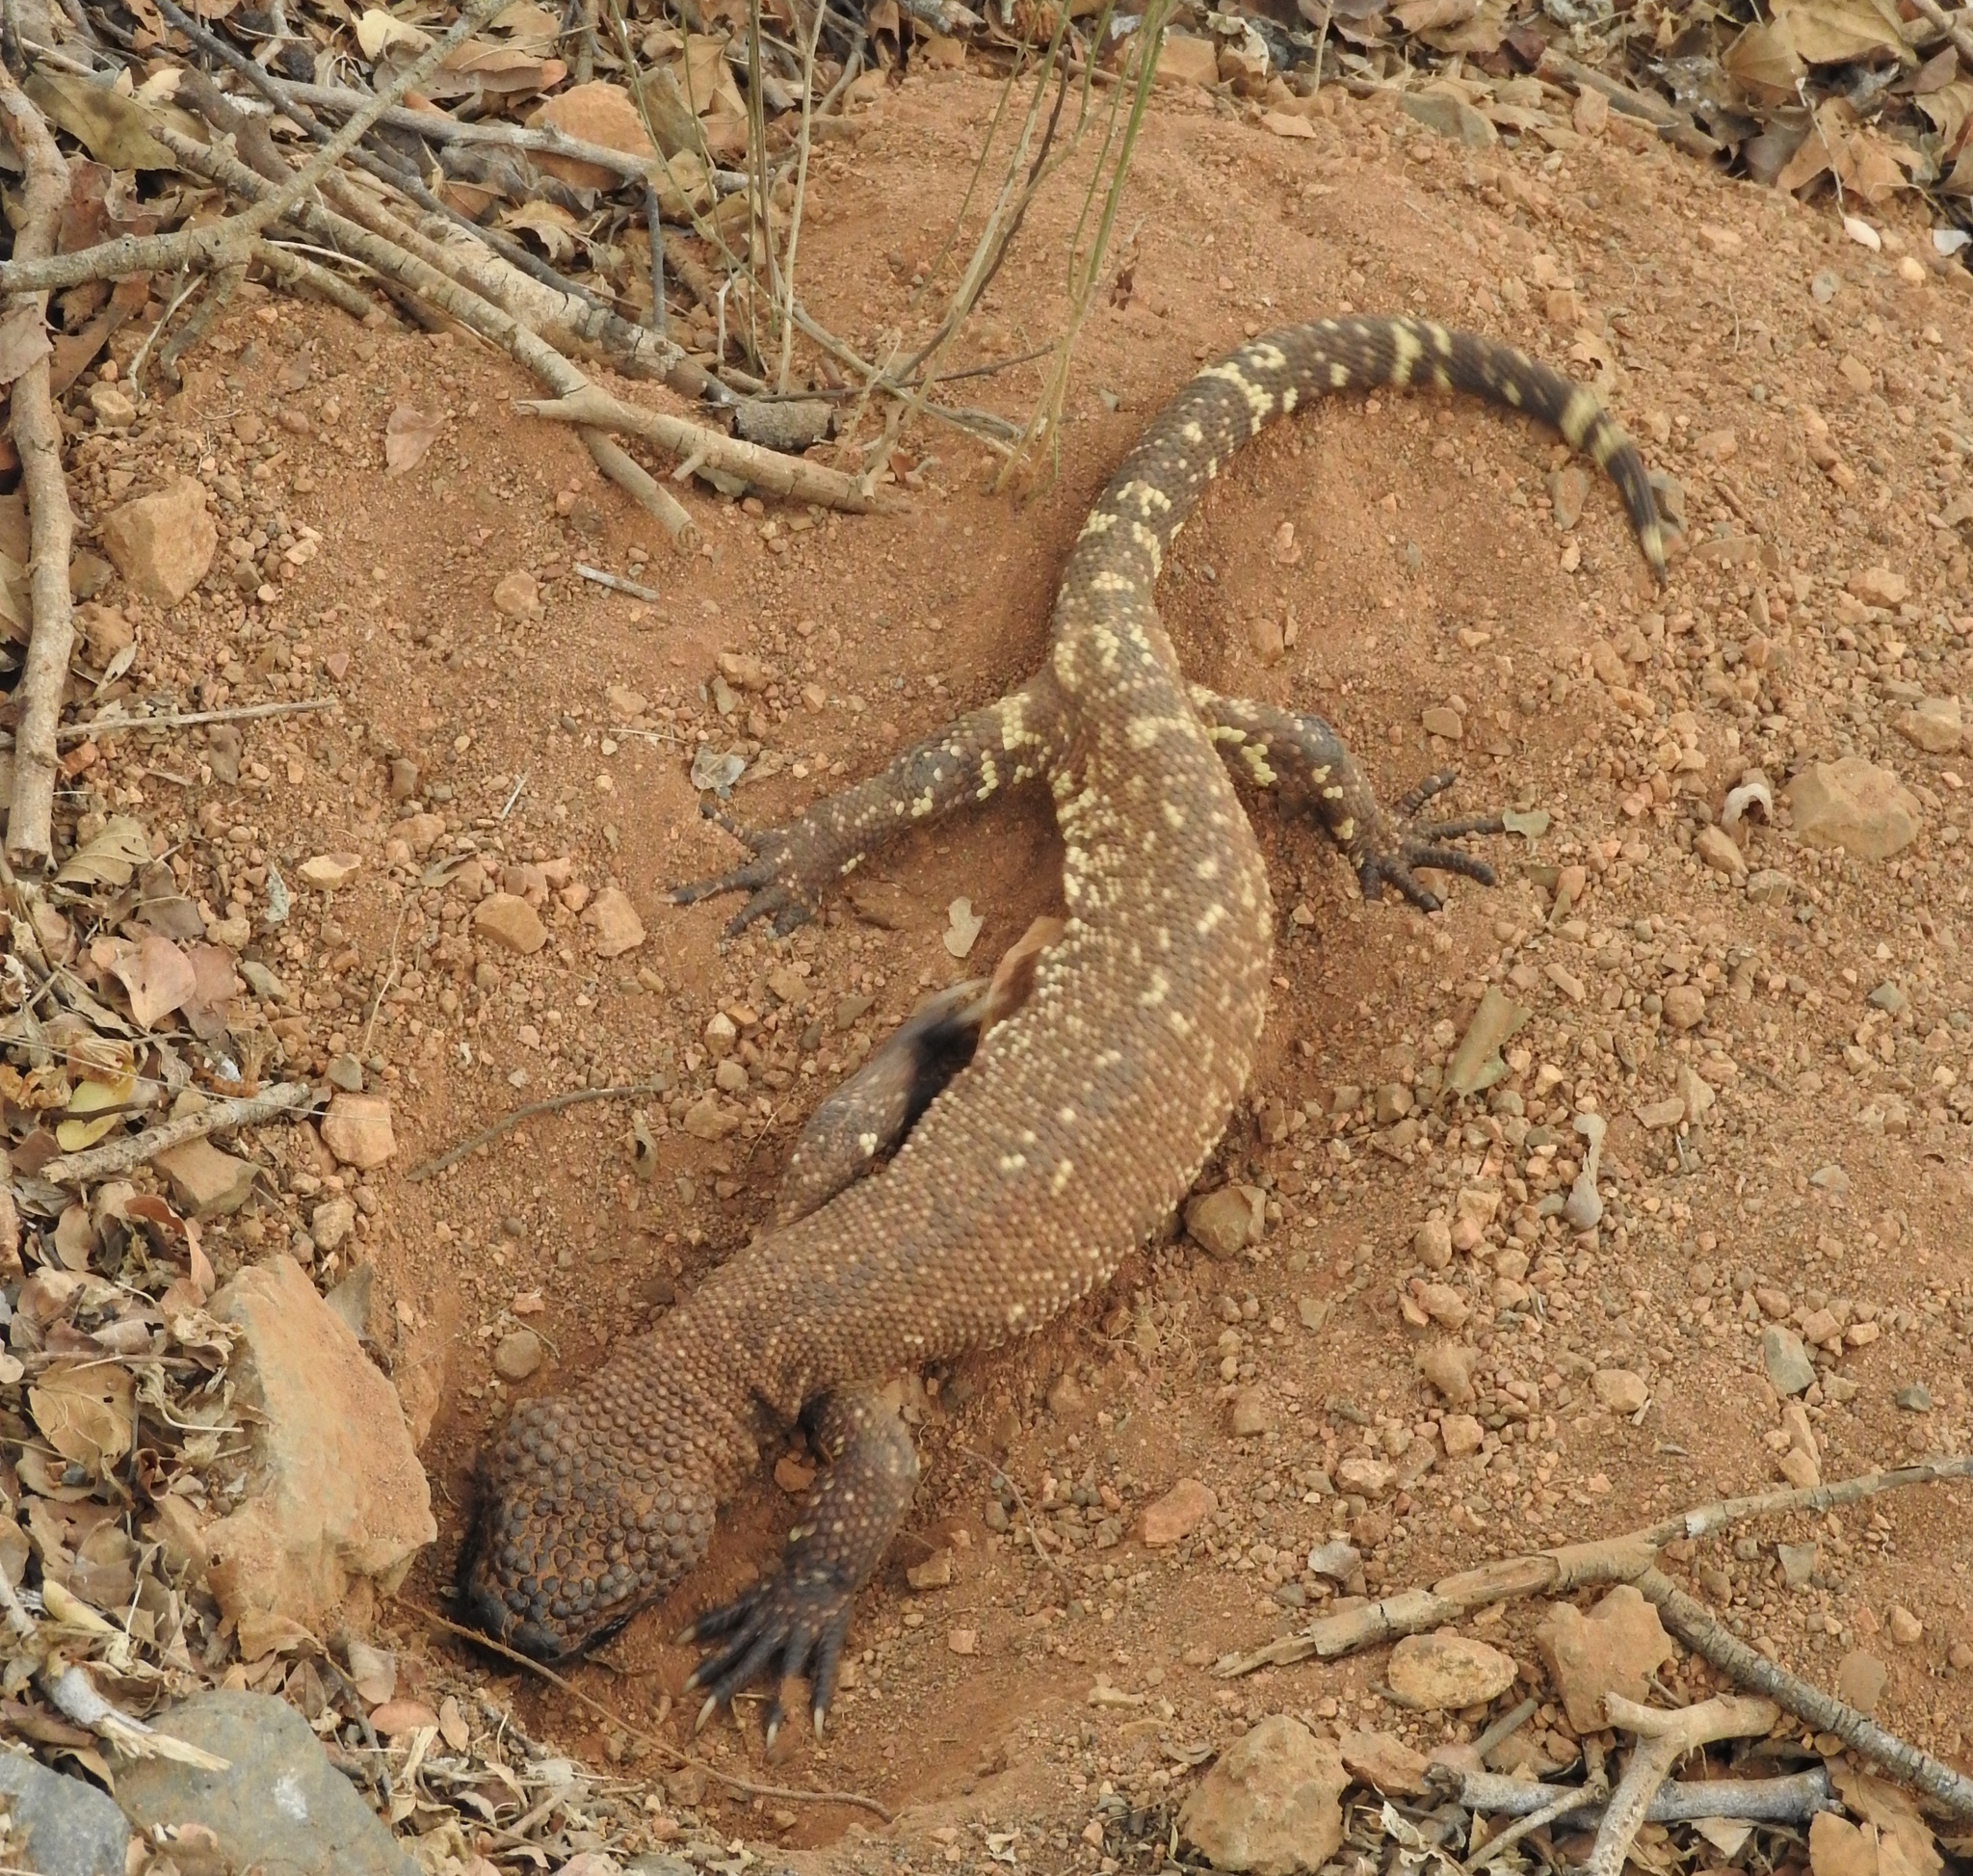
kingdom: Animalia
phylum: Chordata
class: Squamata
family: Helodermatidae
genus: Heloderma
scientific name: Heloderma horridum
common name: Mexican beaded lizard
